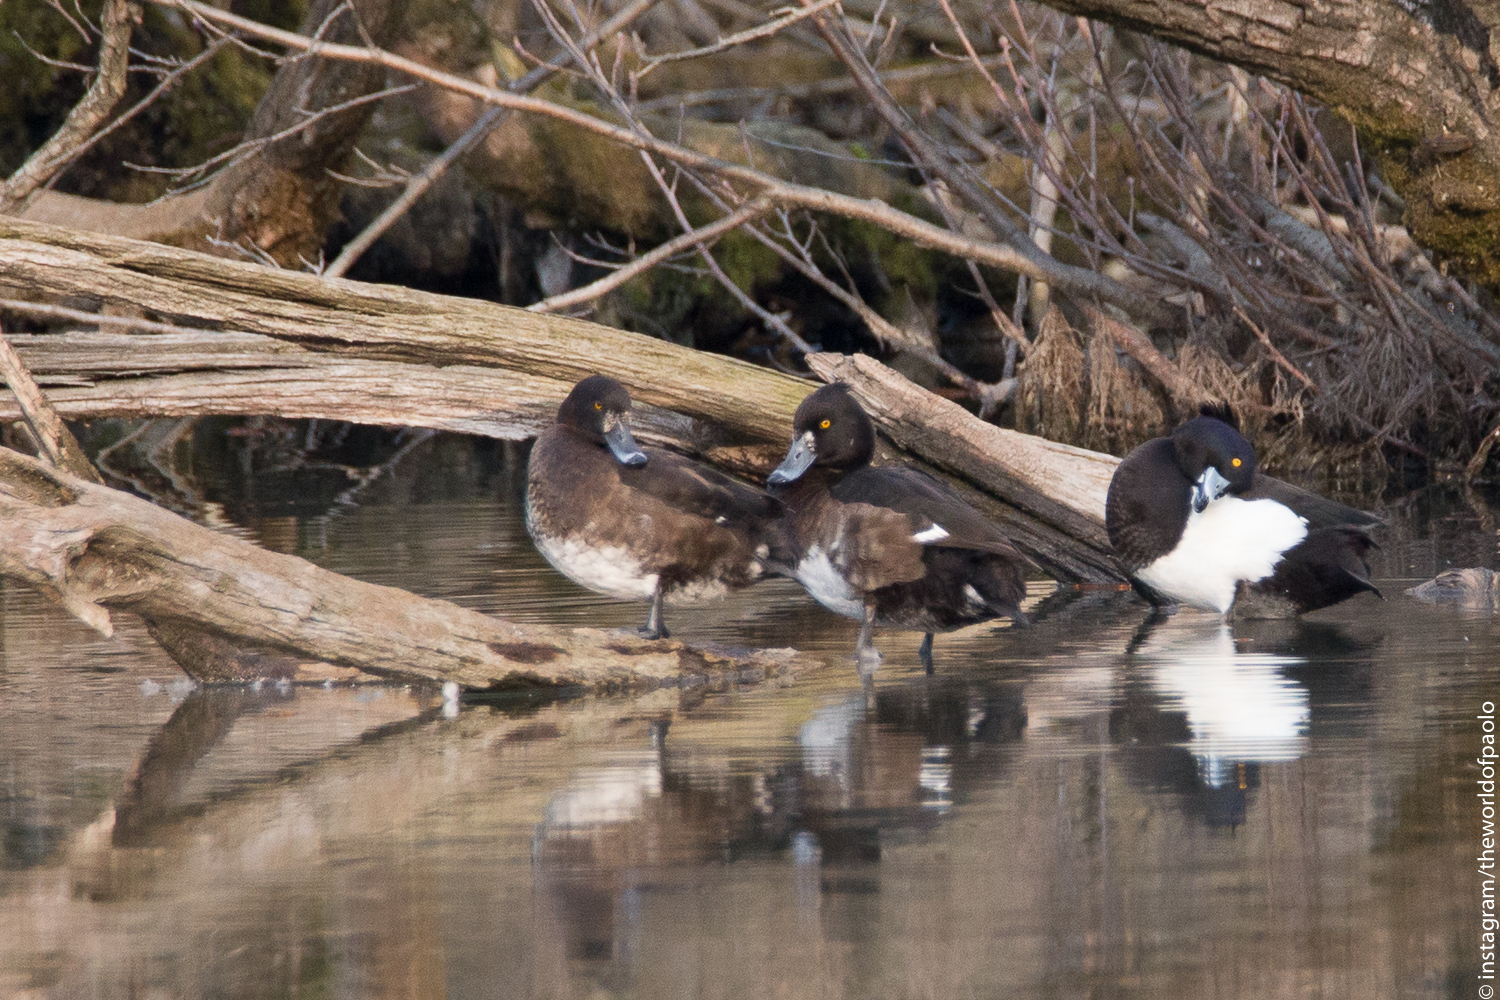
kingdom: Animalia
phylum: Chordata
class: Aves
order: Anseriformes
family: Anatidae
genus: Aythya
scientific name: Aythya fuligula
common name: Tufted duck
